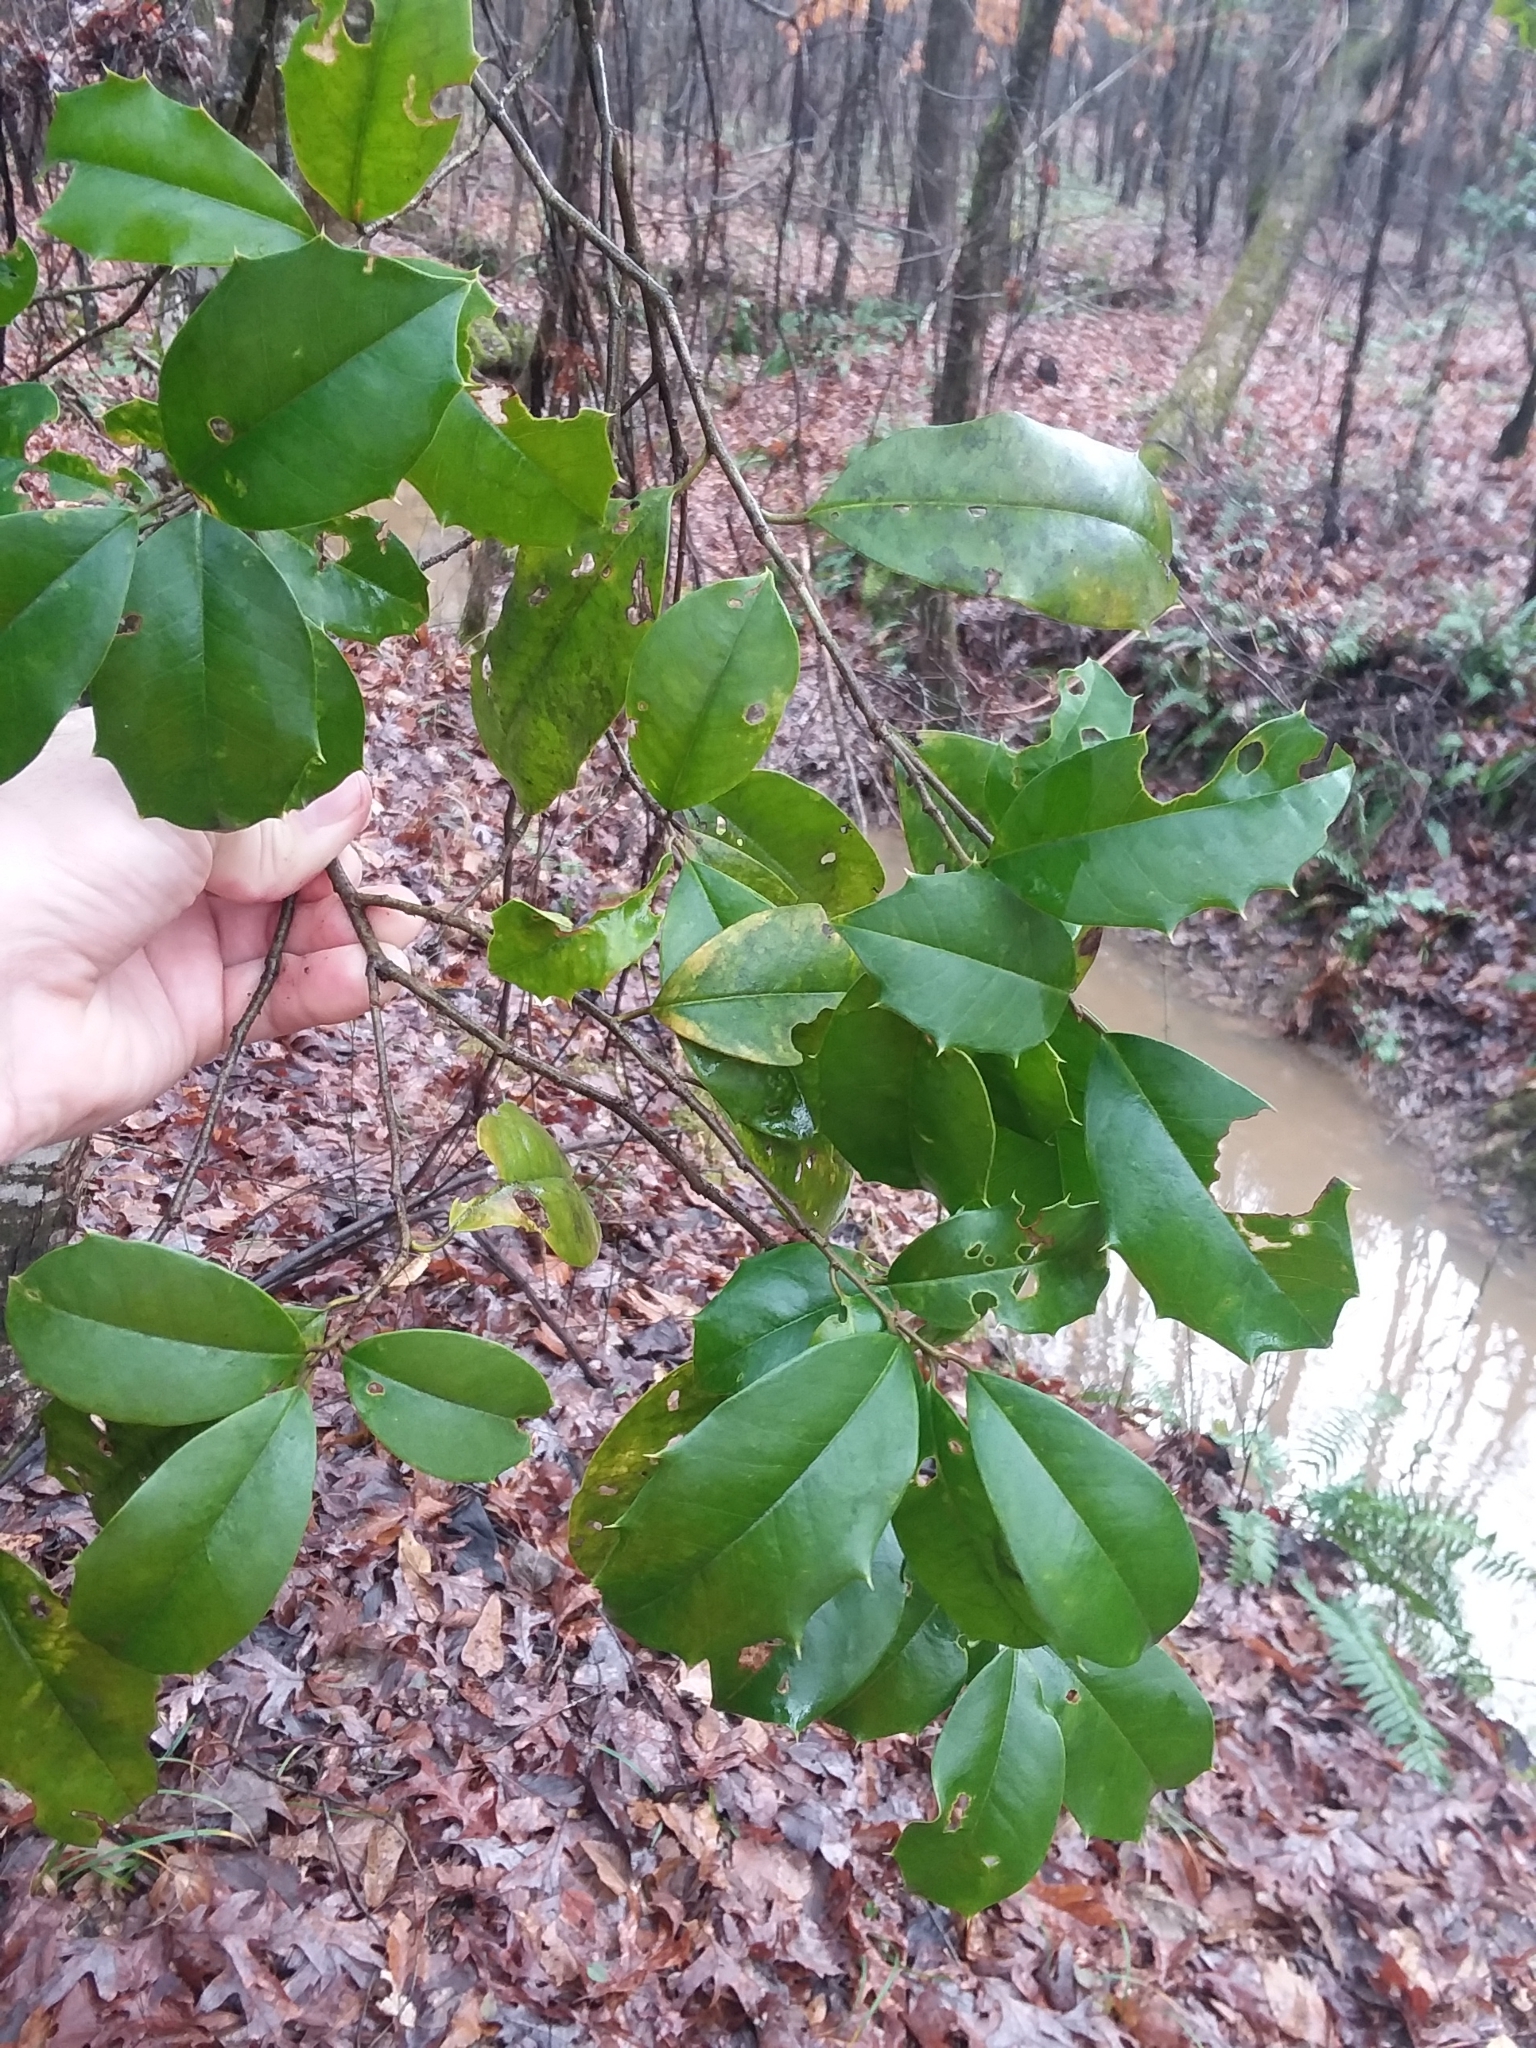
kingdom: Plantae
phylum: Tracheophyta
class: Magnoliopsida
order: Aquifoliales
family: Aquifoliaceae
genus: Ilex
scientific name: Ilex opaca
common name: American holly
